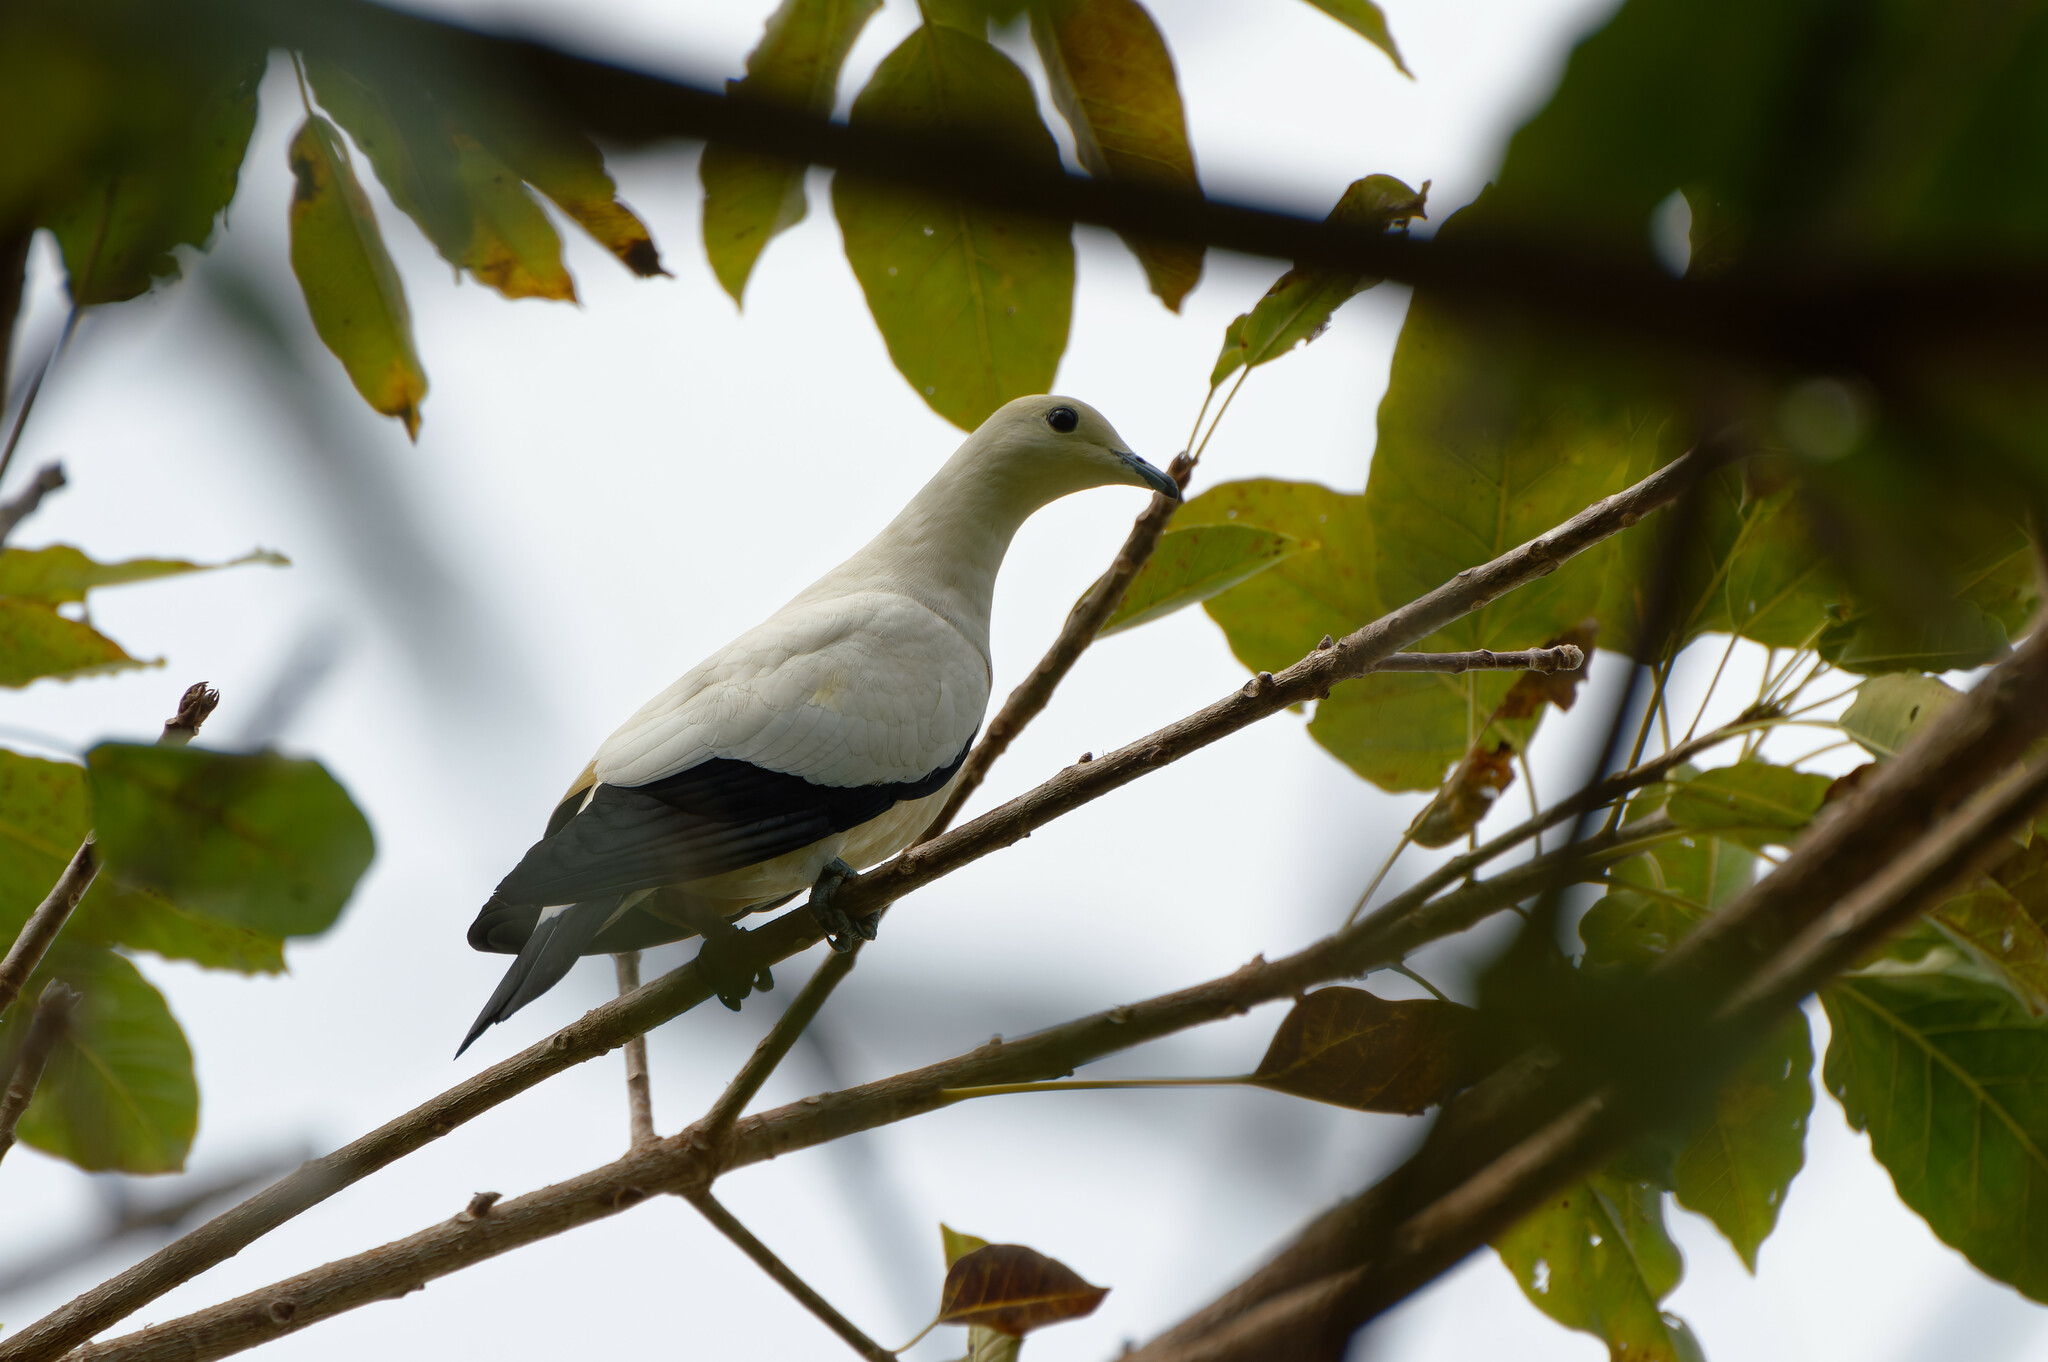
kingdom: Animalia
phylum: Chordata
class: Aves
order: Columbiformes
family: Columbidae
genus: Ducula
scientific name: Ducula bicolor
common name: Pied imperial pigeon
